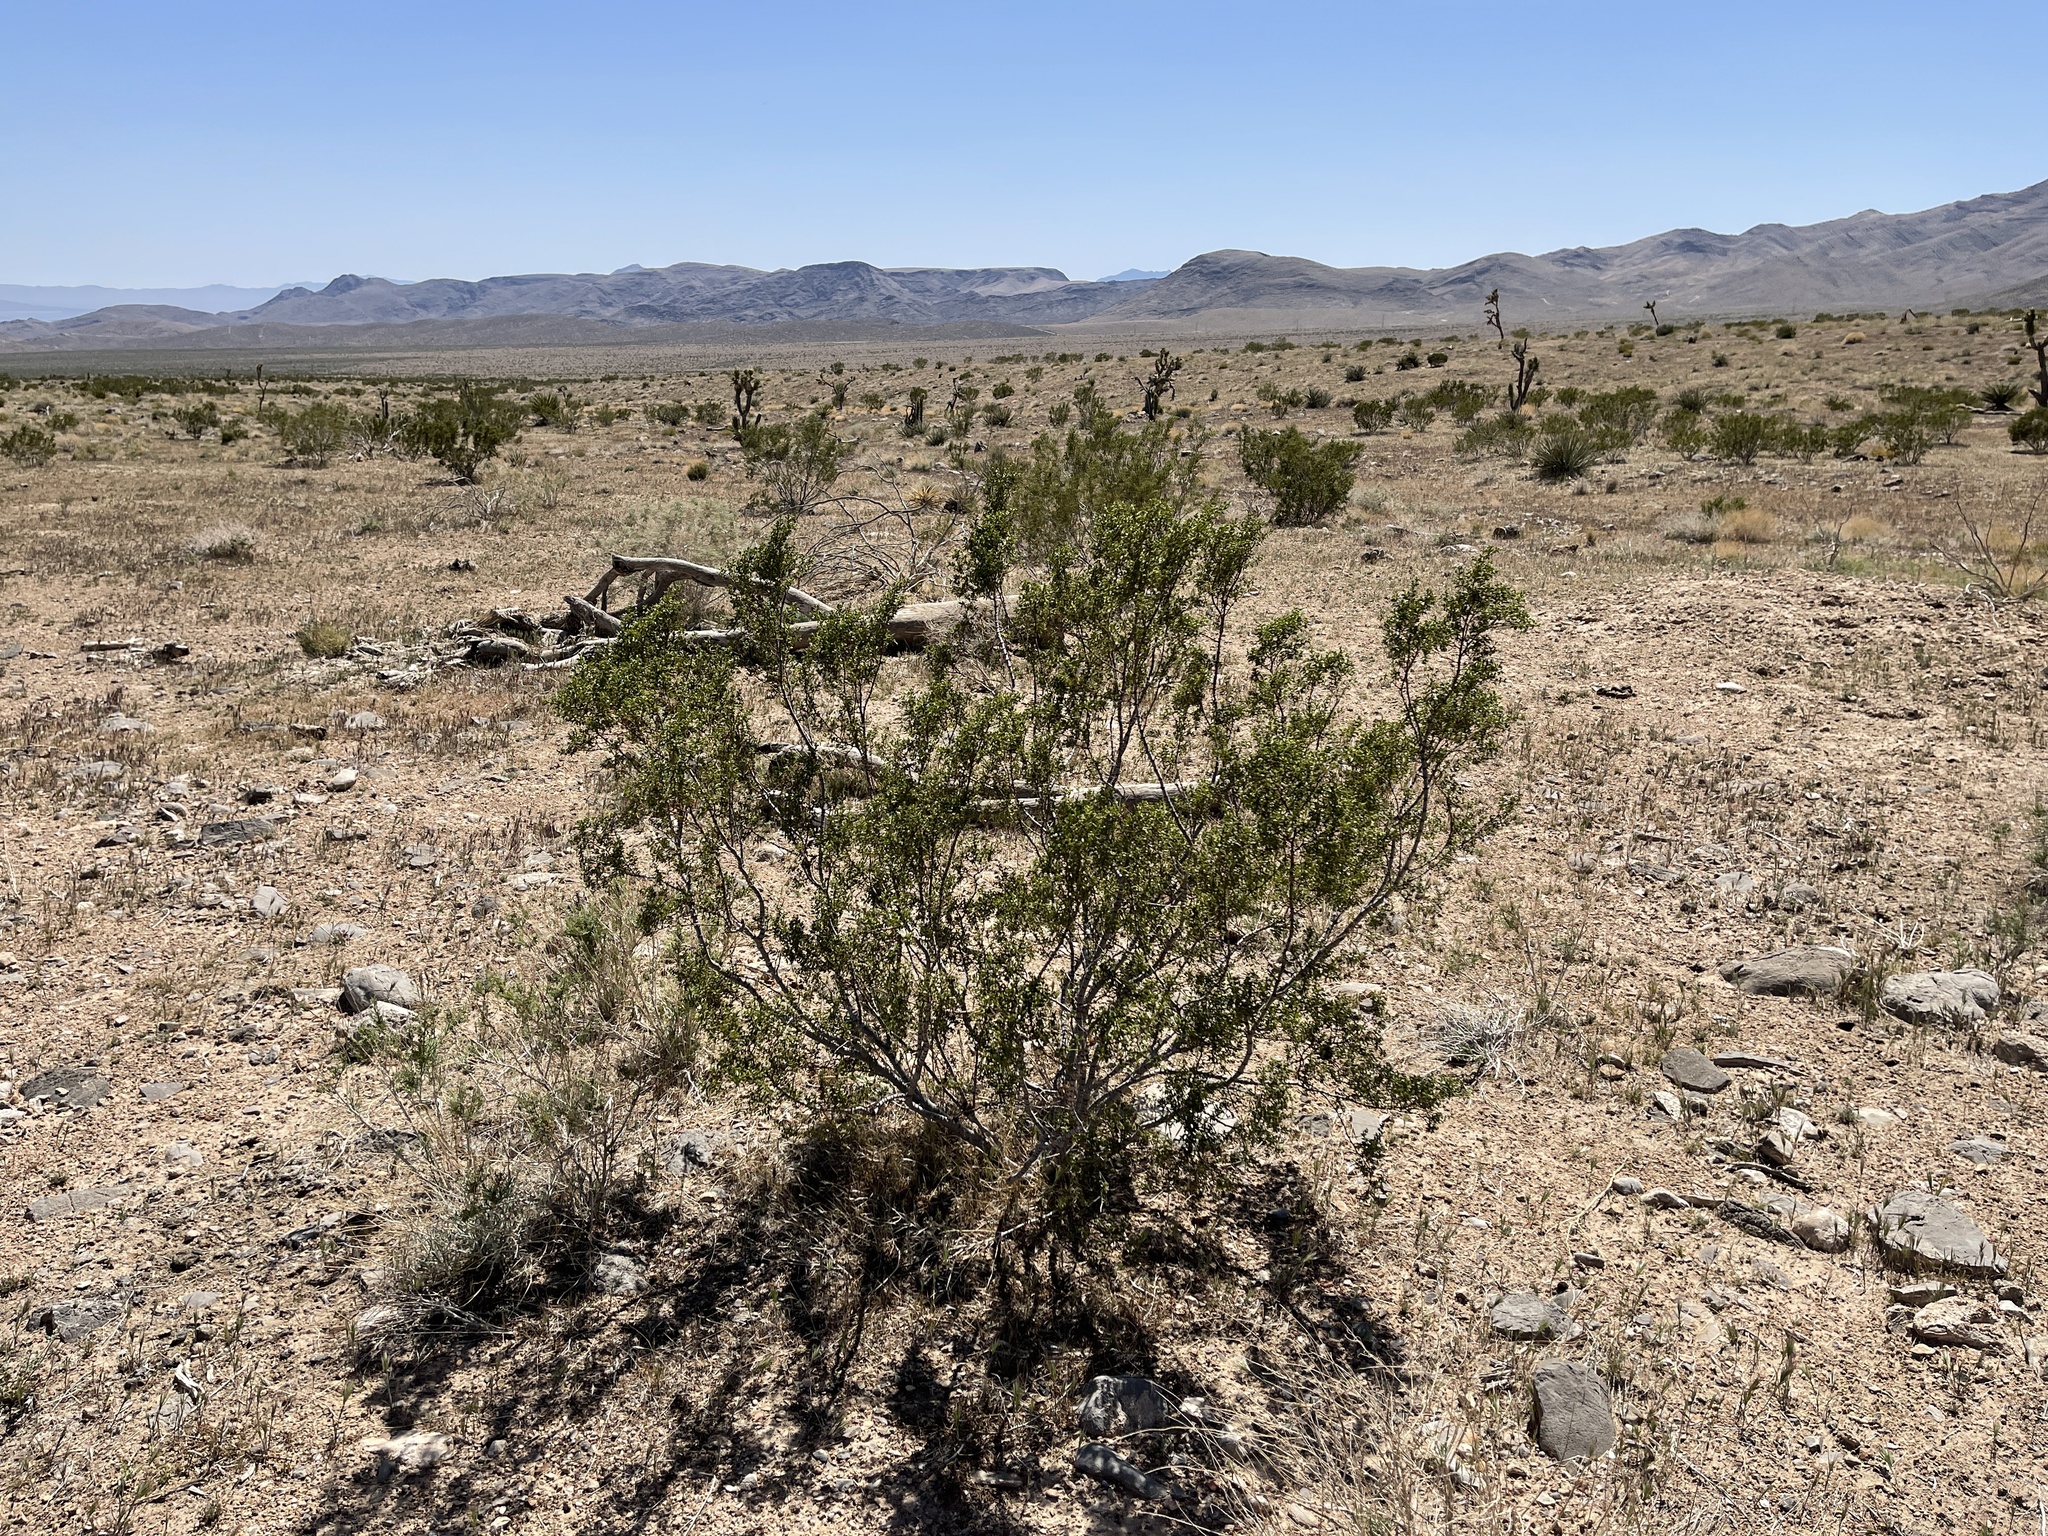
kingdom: Plantae
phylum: Tracheophyta
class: Magnoliopsida
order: Zygophyllales
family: Zygophyllaceae
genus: Larrea
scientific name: Larrea tridentata
